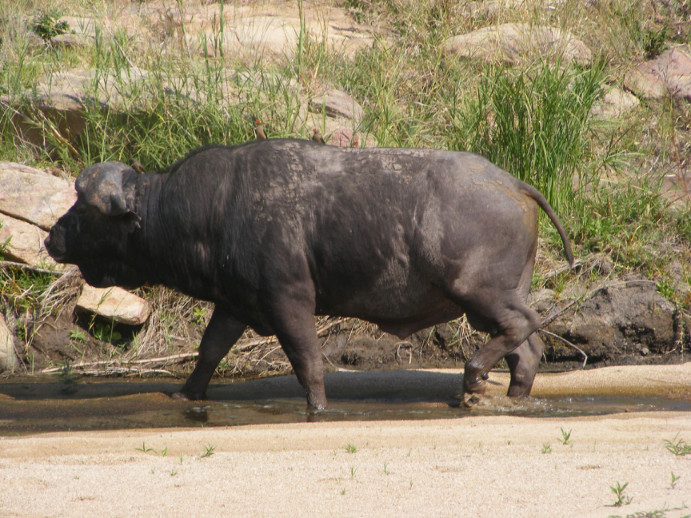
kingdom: Animalia
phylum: Chordata
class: Mammalia
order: Artiodactyla
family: Bovidae
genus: Syncerus
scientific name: Syncerus caffer
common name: African buffalo
